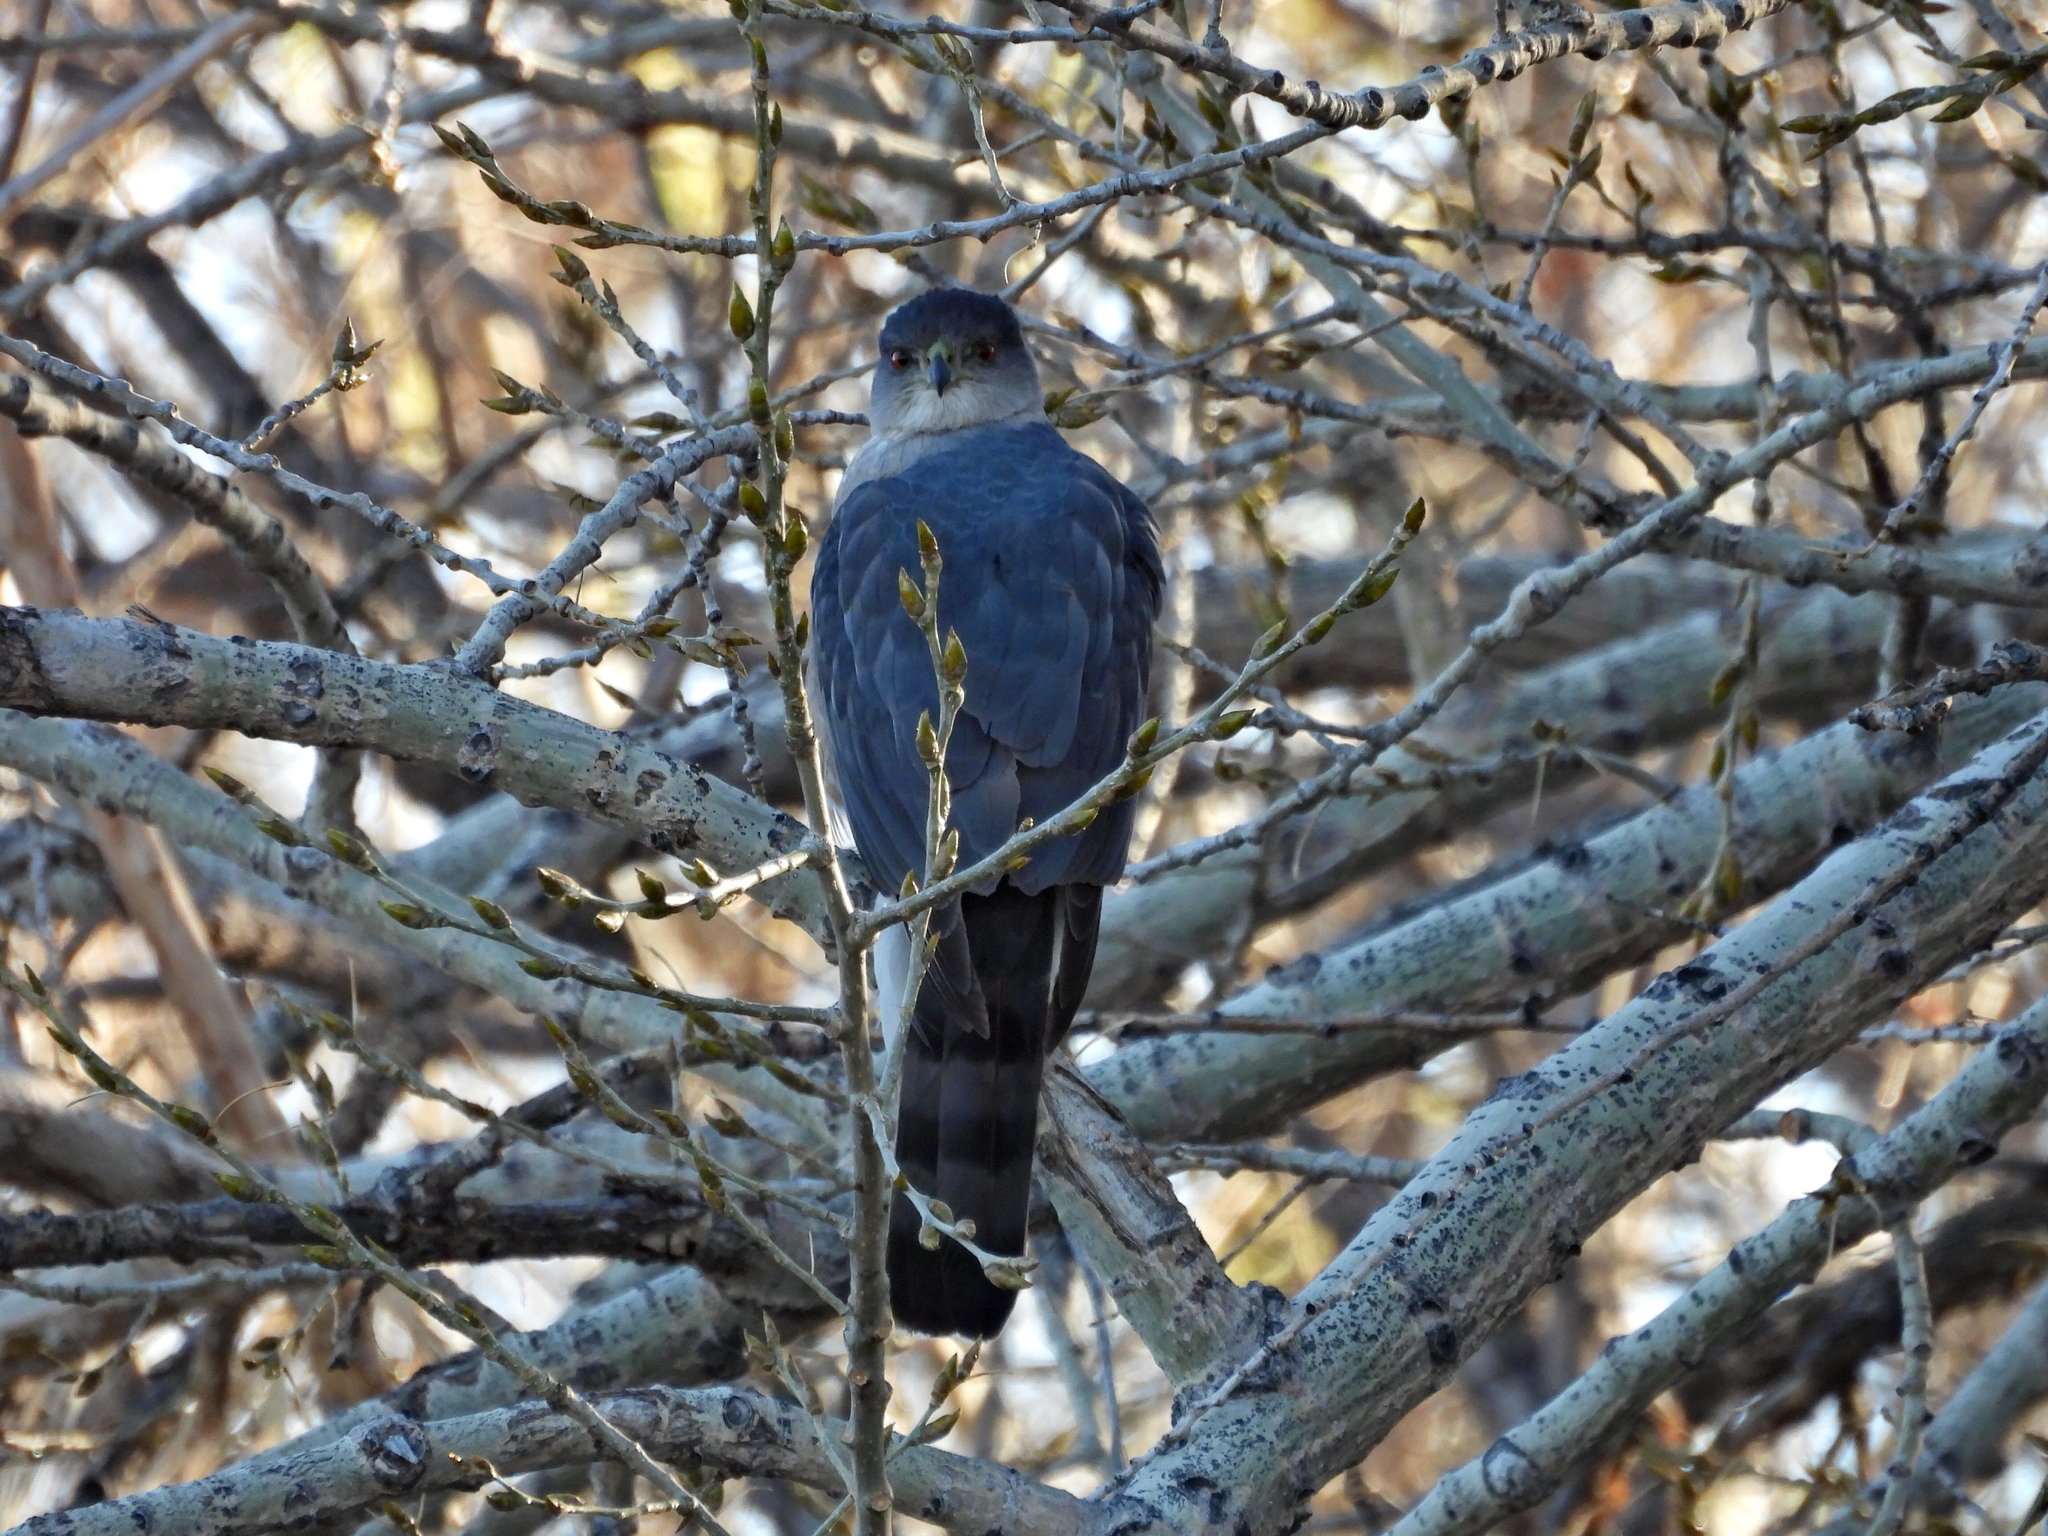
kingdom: Animalia
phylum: Chordata
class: Aves
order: Accipitriformes
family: Accipitridae
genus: Accipiter
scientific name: Accipiter cooperii
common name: Cooper's hawk
